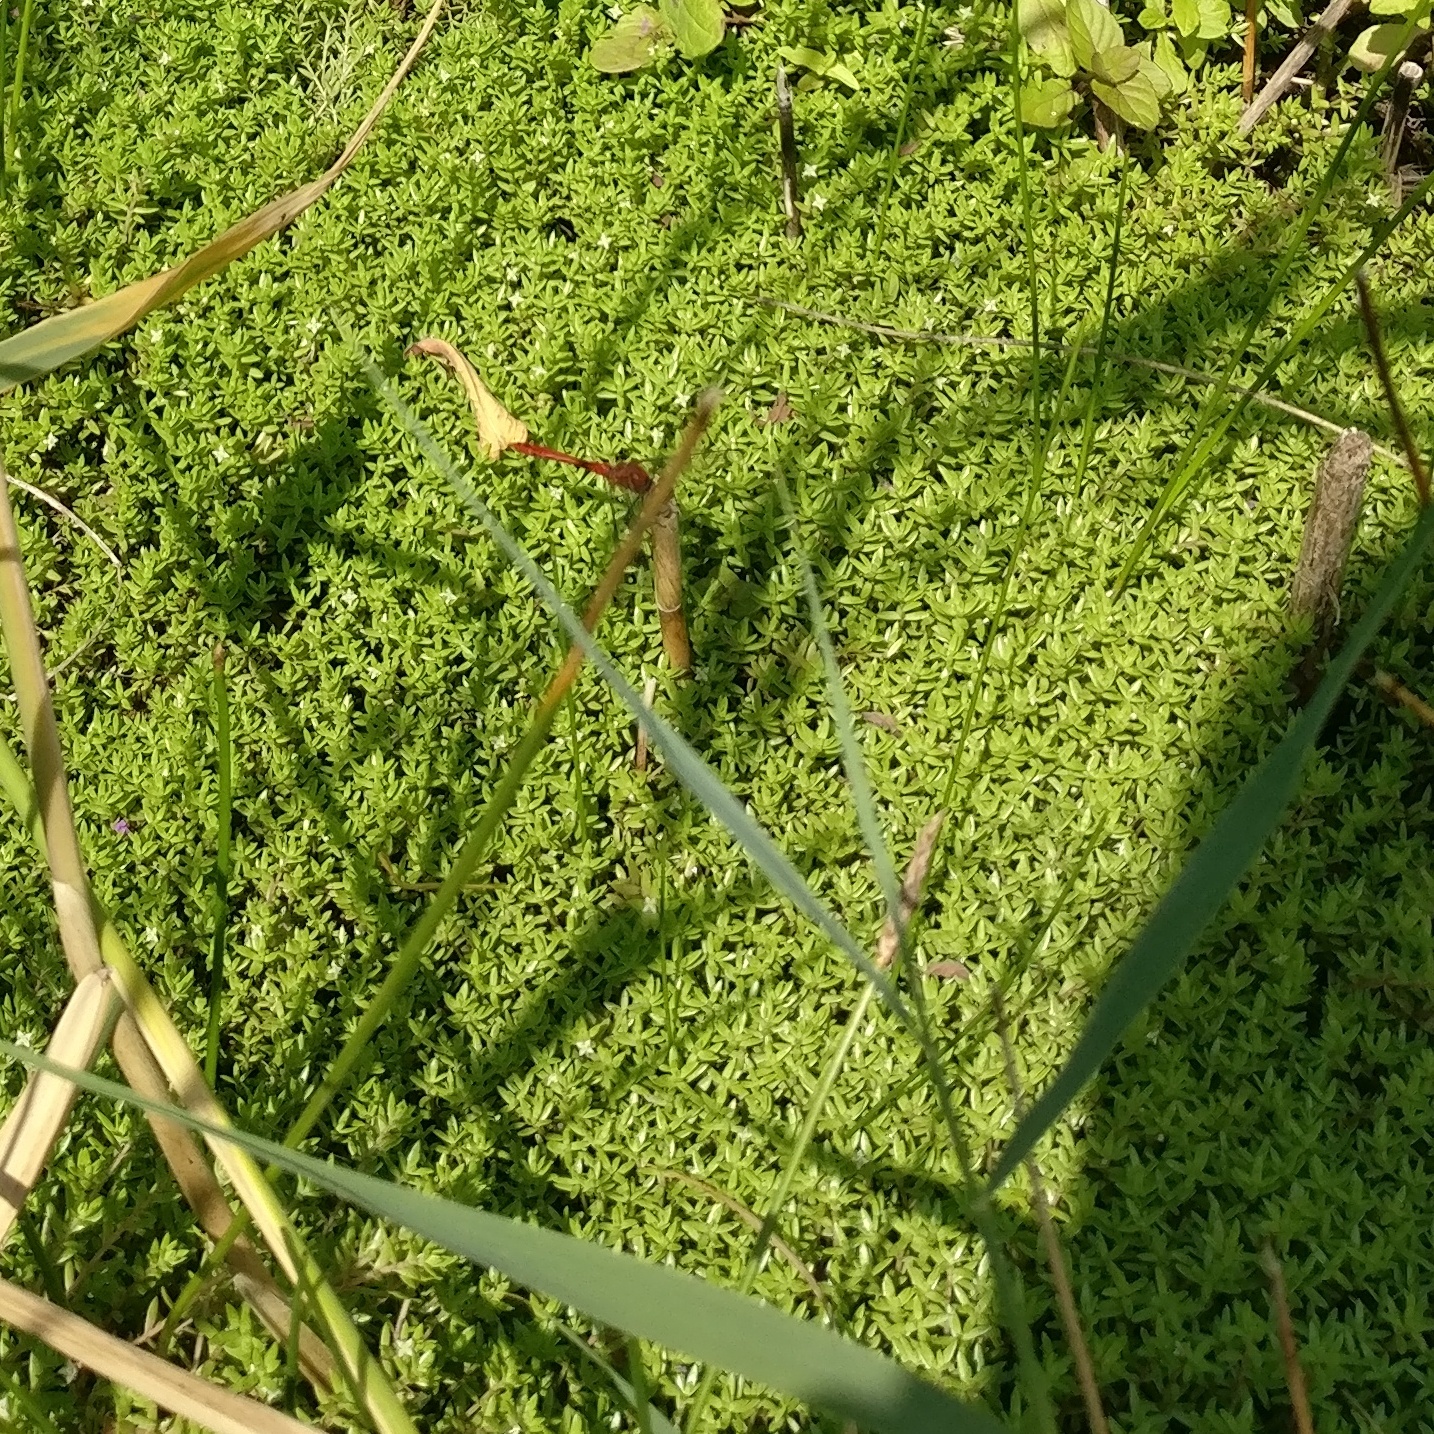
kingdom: Plantae
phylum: Tracheophyta
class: Magnoliopsida
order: Saxifragales
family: Crassulaceae
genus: Crassula
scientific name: Crassula helmsii
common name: New zealand pigmyweed
